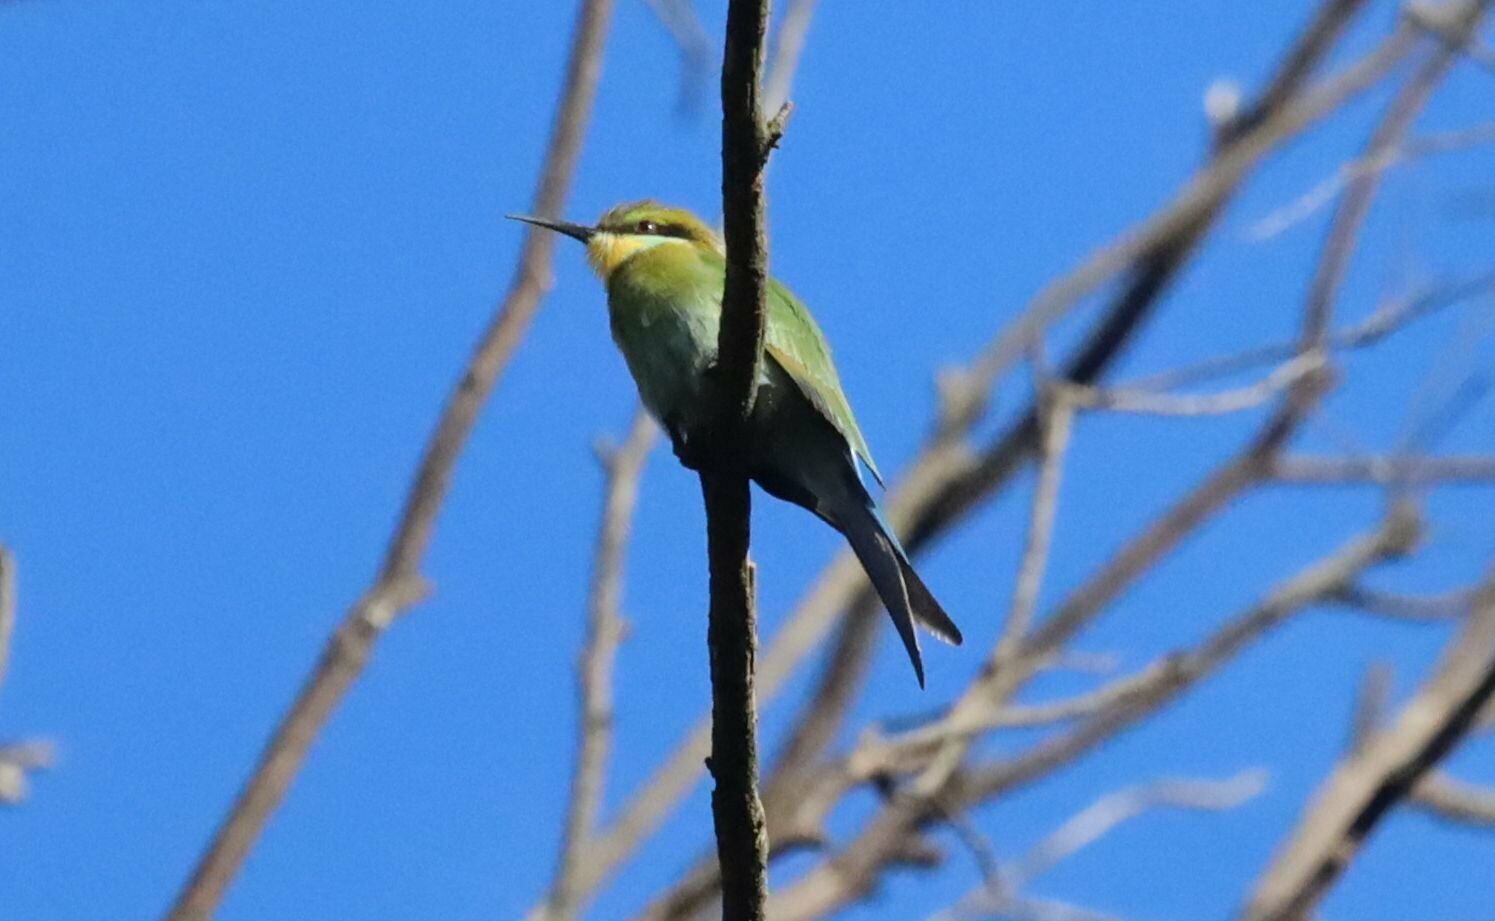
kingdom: Animalia
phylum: Chordata
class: Aves
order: Coraciiformes
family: Meropidae
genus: Merops
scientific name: Merops hirundineus
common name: Swallow-tailed bee-eater
